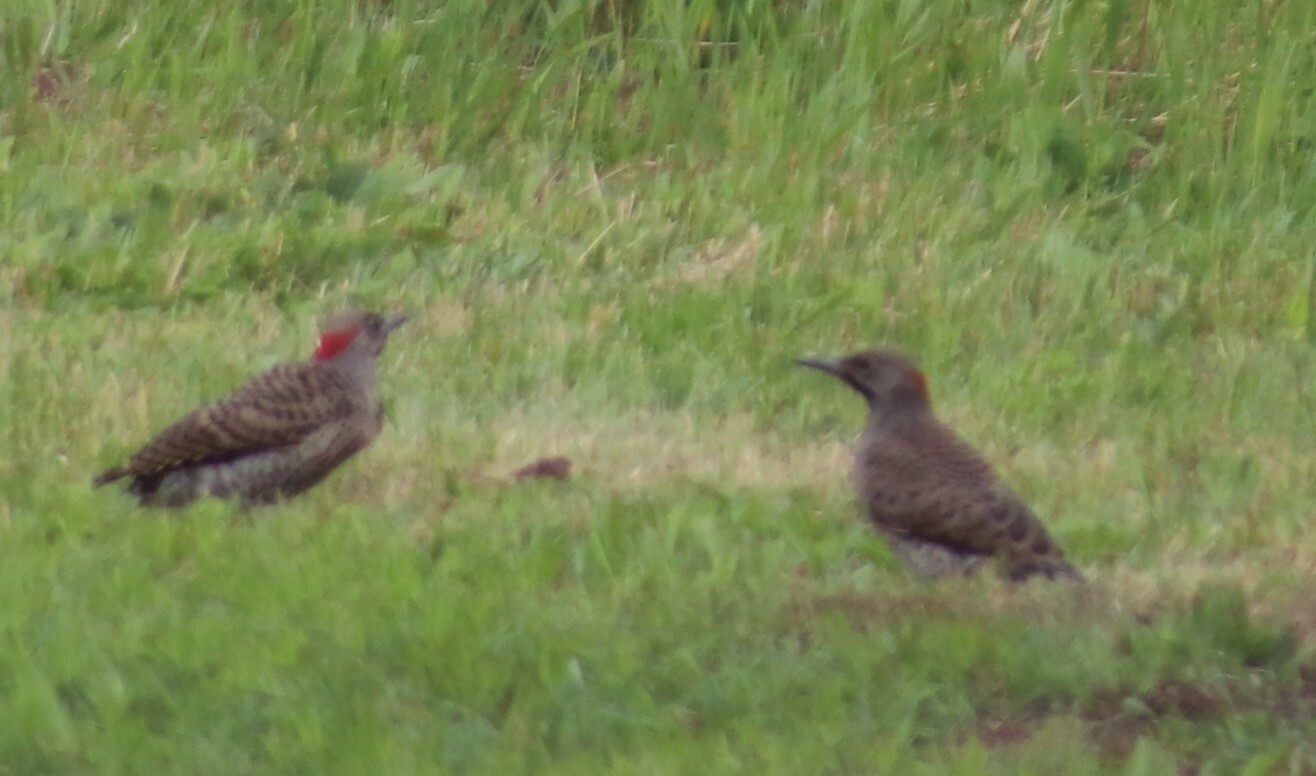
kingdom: Animalia
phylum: Chordata
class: Aves
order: Piciformes
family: Picidae
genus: Colaptes
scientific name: Colaptes auratus
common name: Northern flicker
